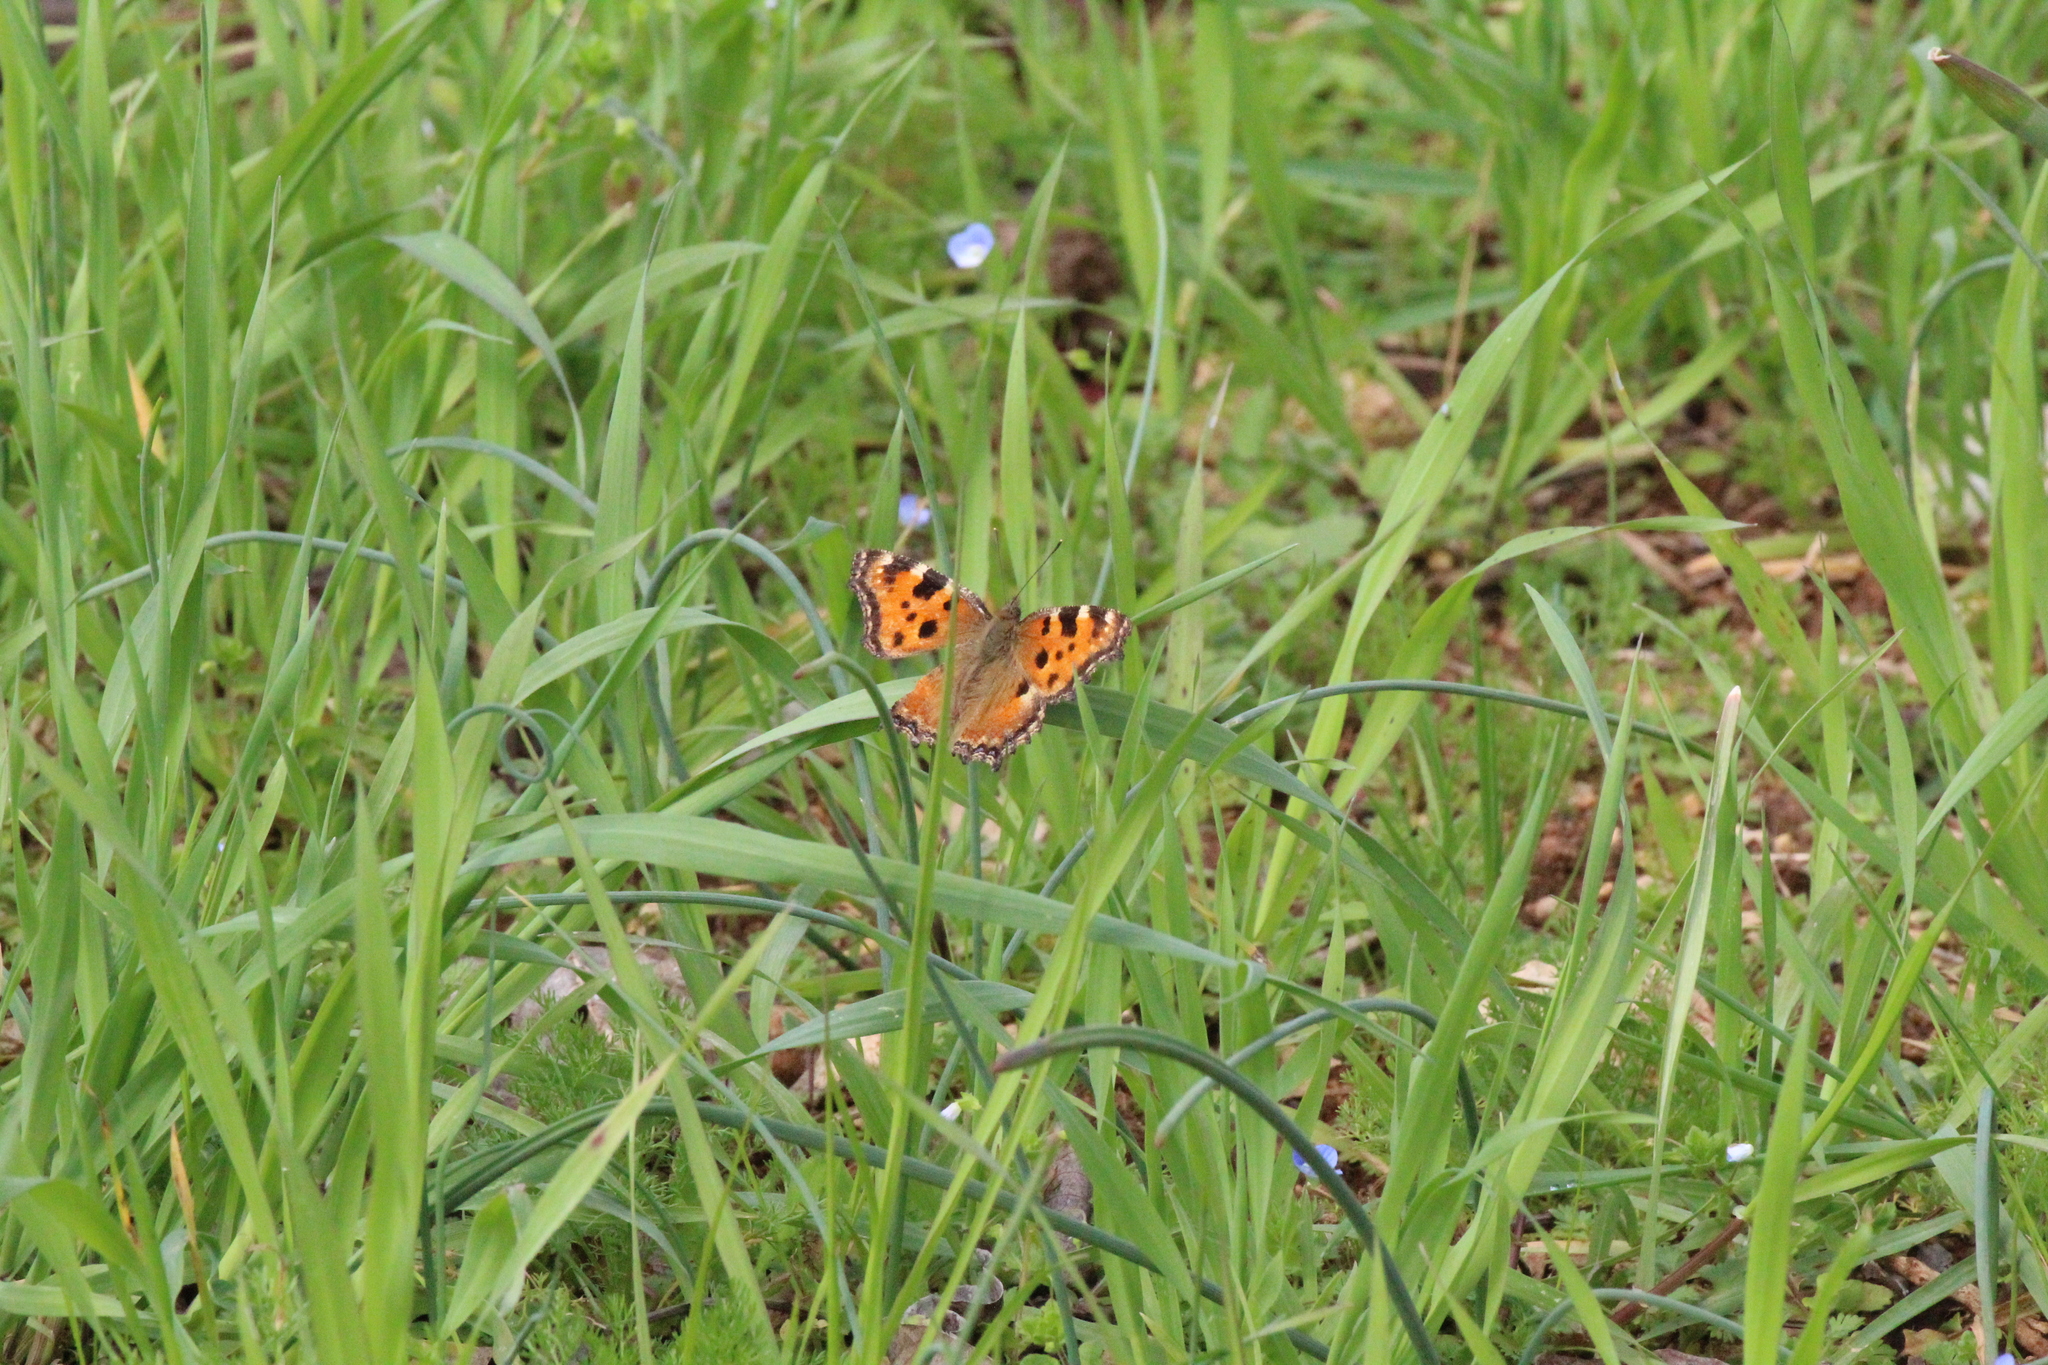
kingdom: Animalia
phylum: Arthropoda
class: Insecta
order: Lepidoptera
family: Nymphalidae
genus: Nymphalis
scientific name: Nymphalis polychloros
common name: Large tortoiseshell
